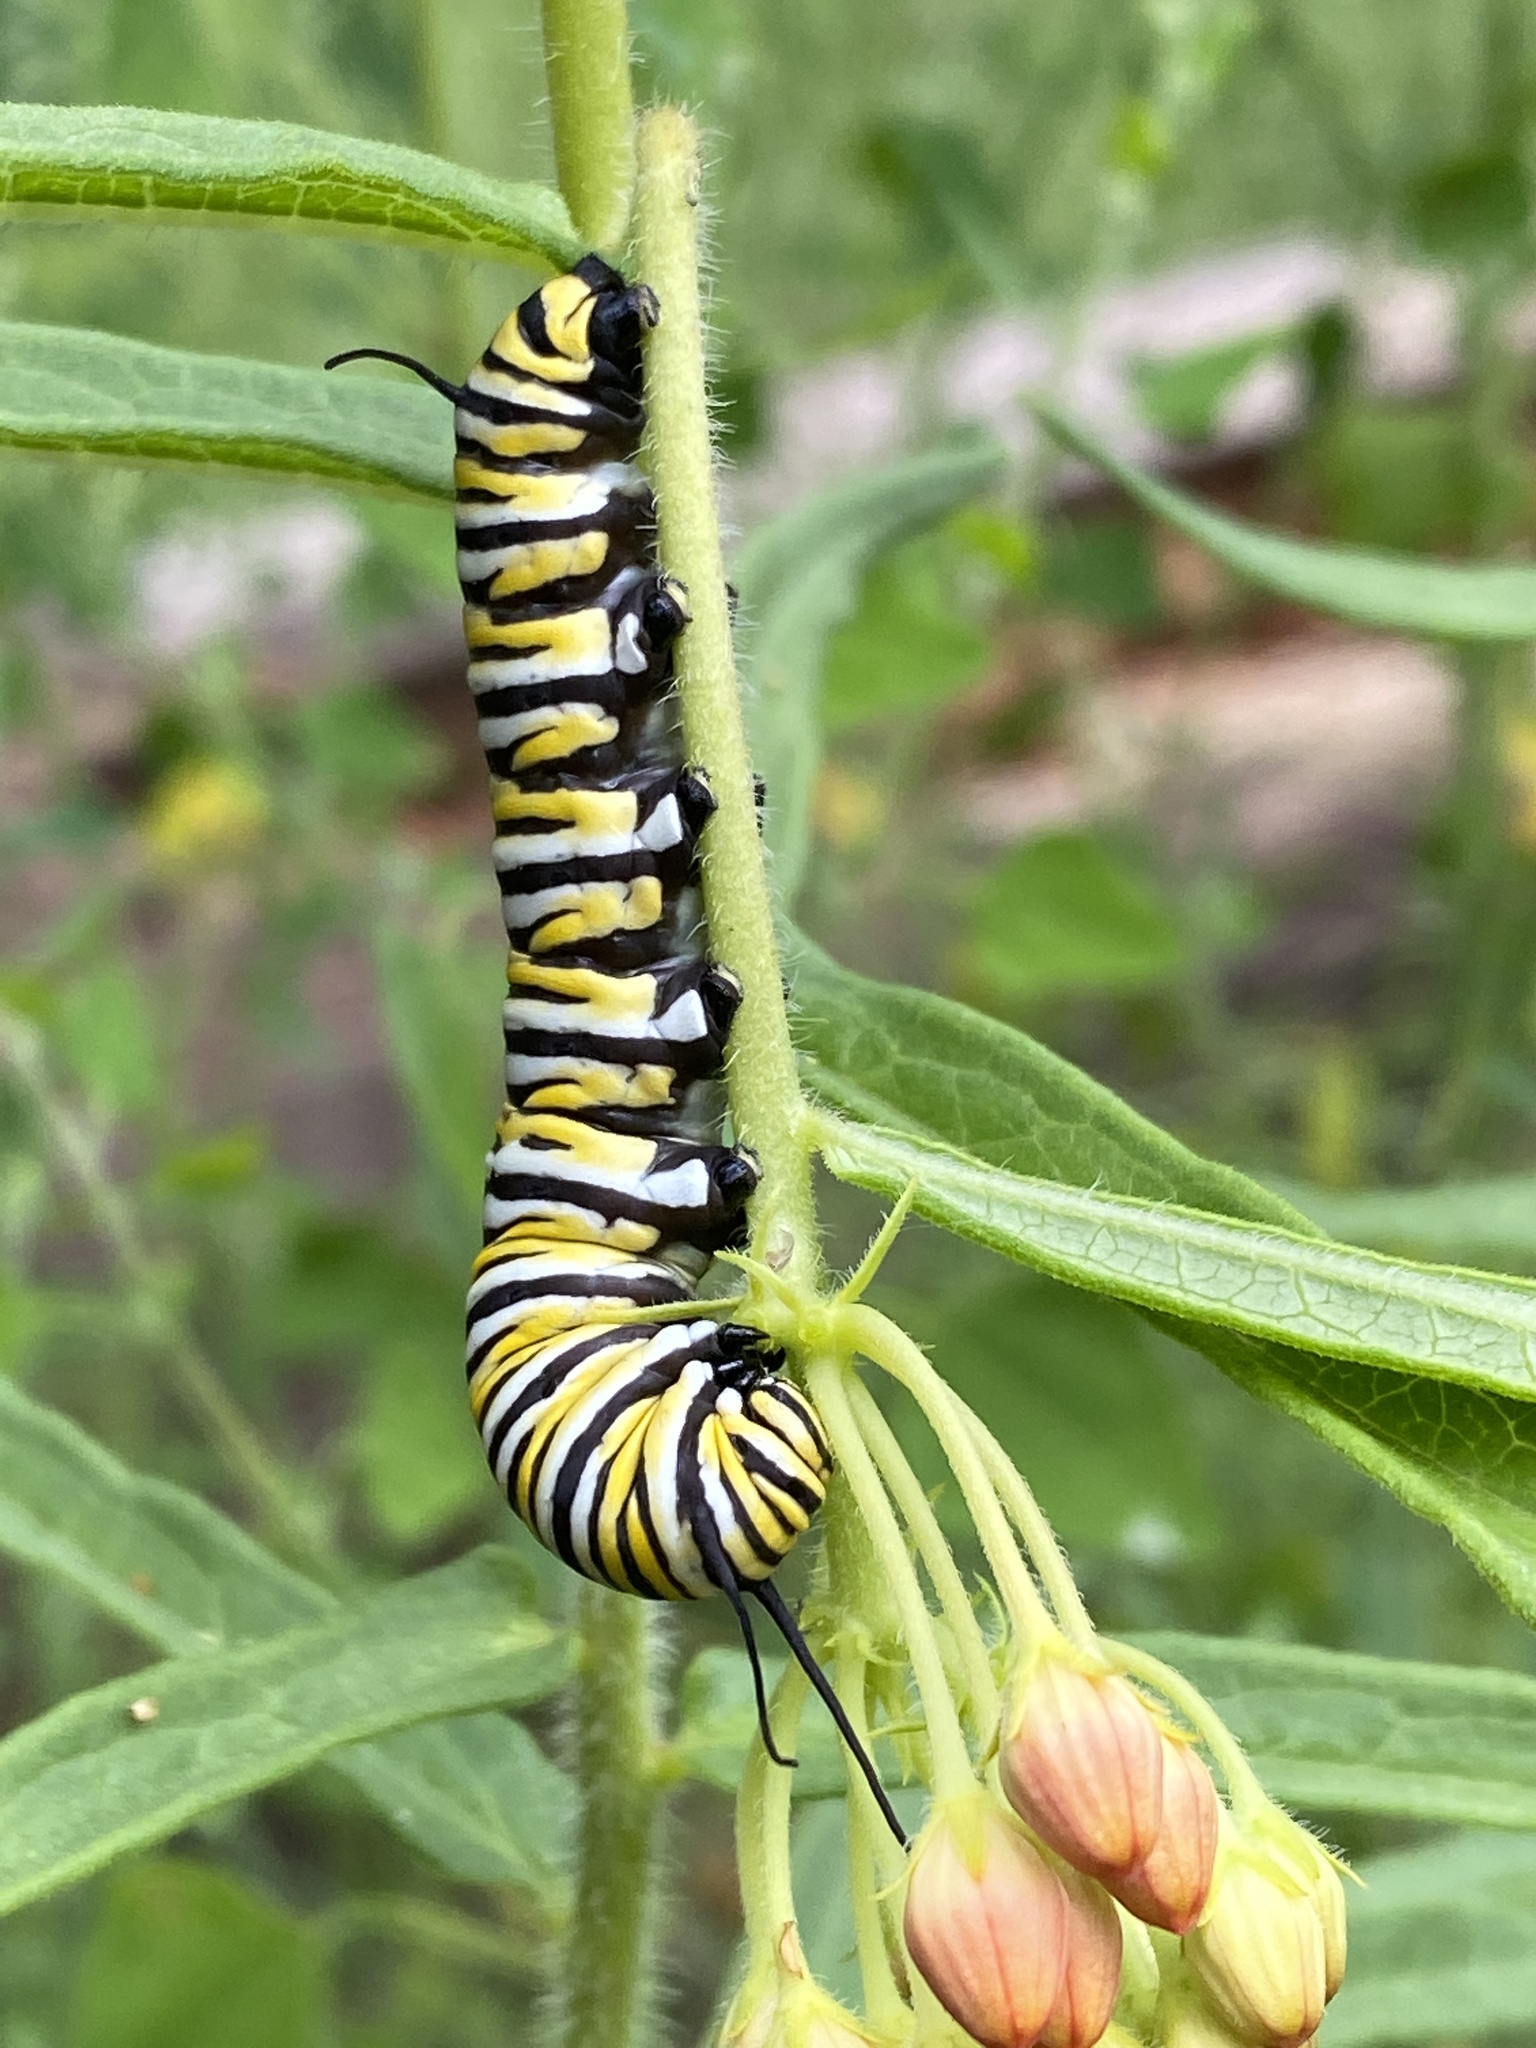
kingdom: Animalia
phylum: Arthropoda
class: Insecta
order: Lepidoptera
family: Nymphalidae
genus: Danaus
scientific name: Danaus plexippus
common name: Monarch
